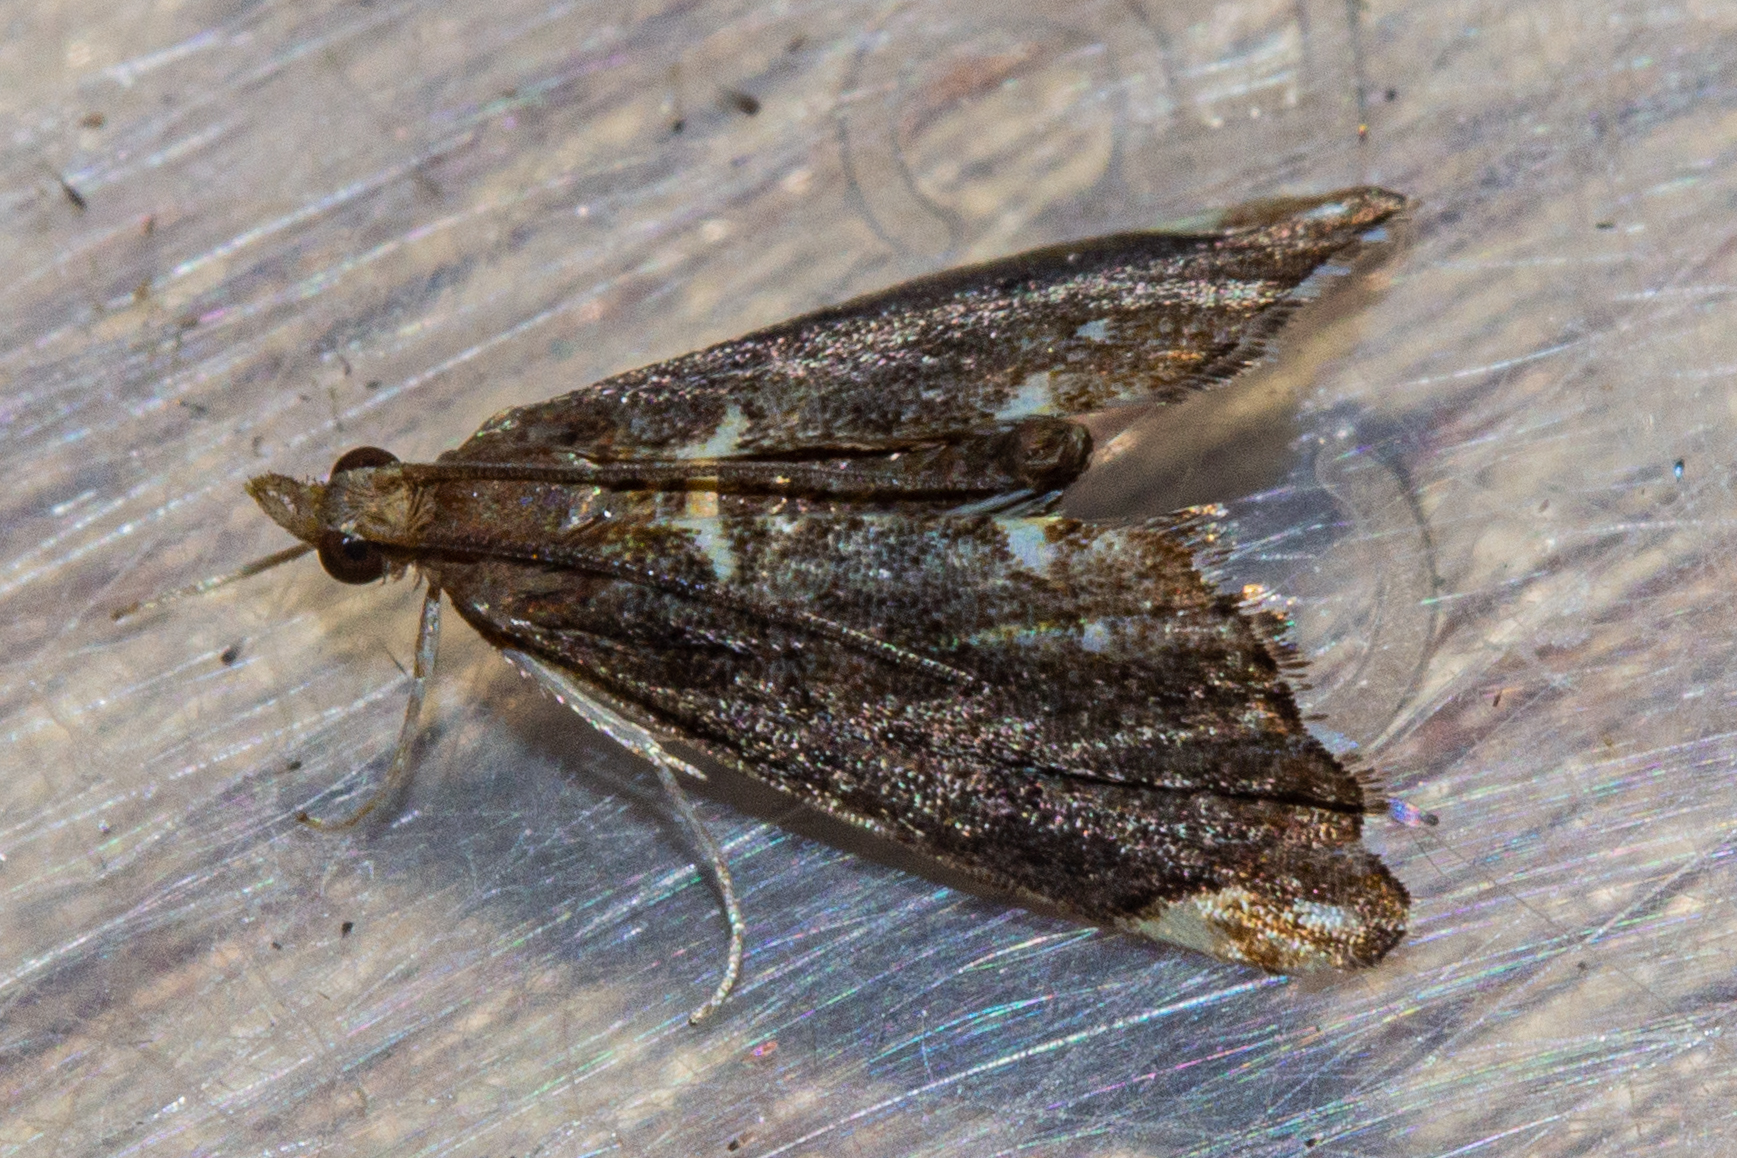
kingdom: Animalia
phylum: Arthropoda
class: Insecta
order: Lepidoptera
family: Crambidae
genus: Glaucocharis
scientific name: Glaucocharis pyrsophanes
